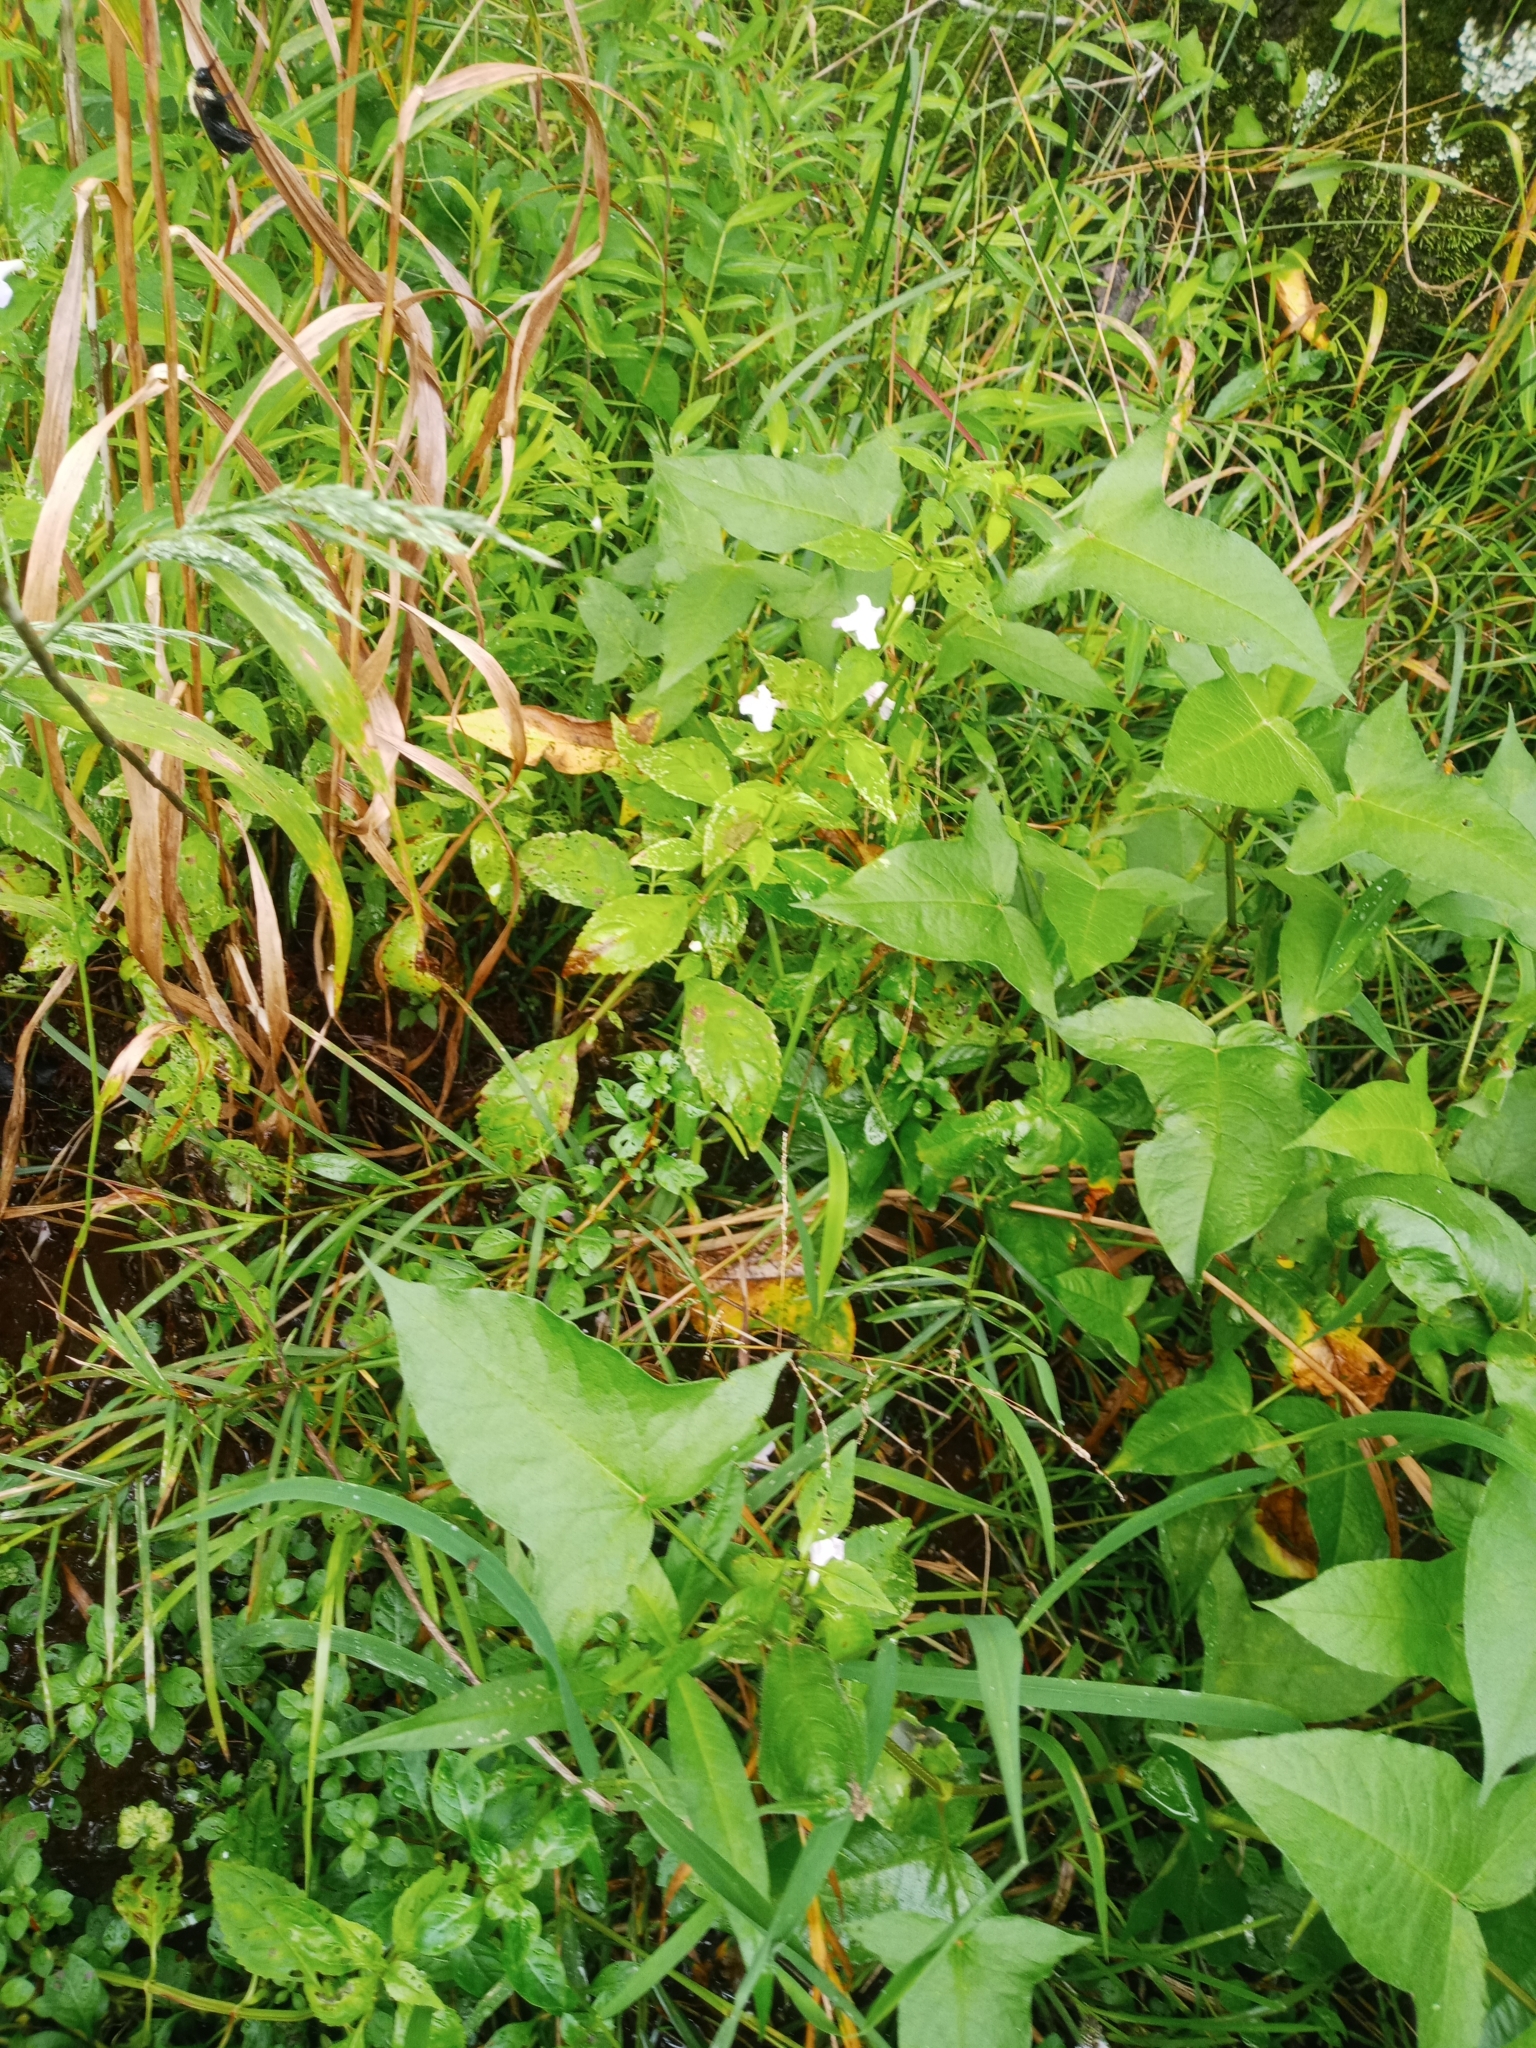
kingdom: Plantae
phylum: Tracheophyta
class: Magnoliopsida
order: Lamiales
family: Phrymaceae
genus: Mimulus
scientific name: Mimulus alatus
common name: Sharp-wing monkey-flower
